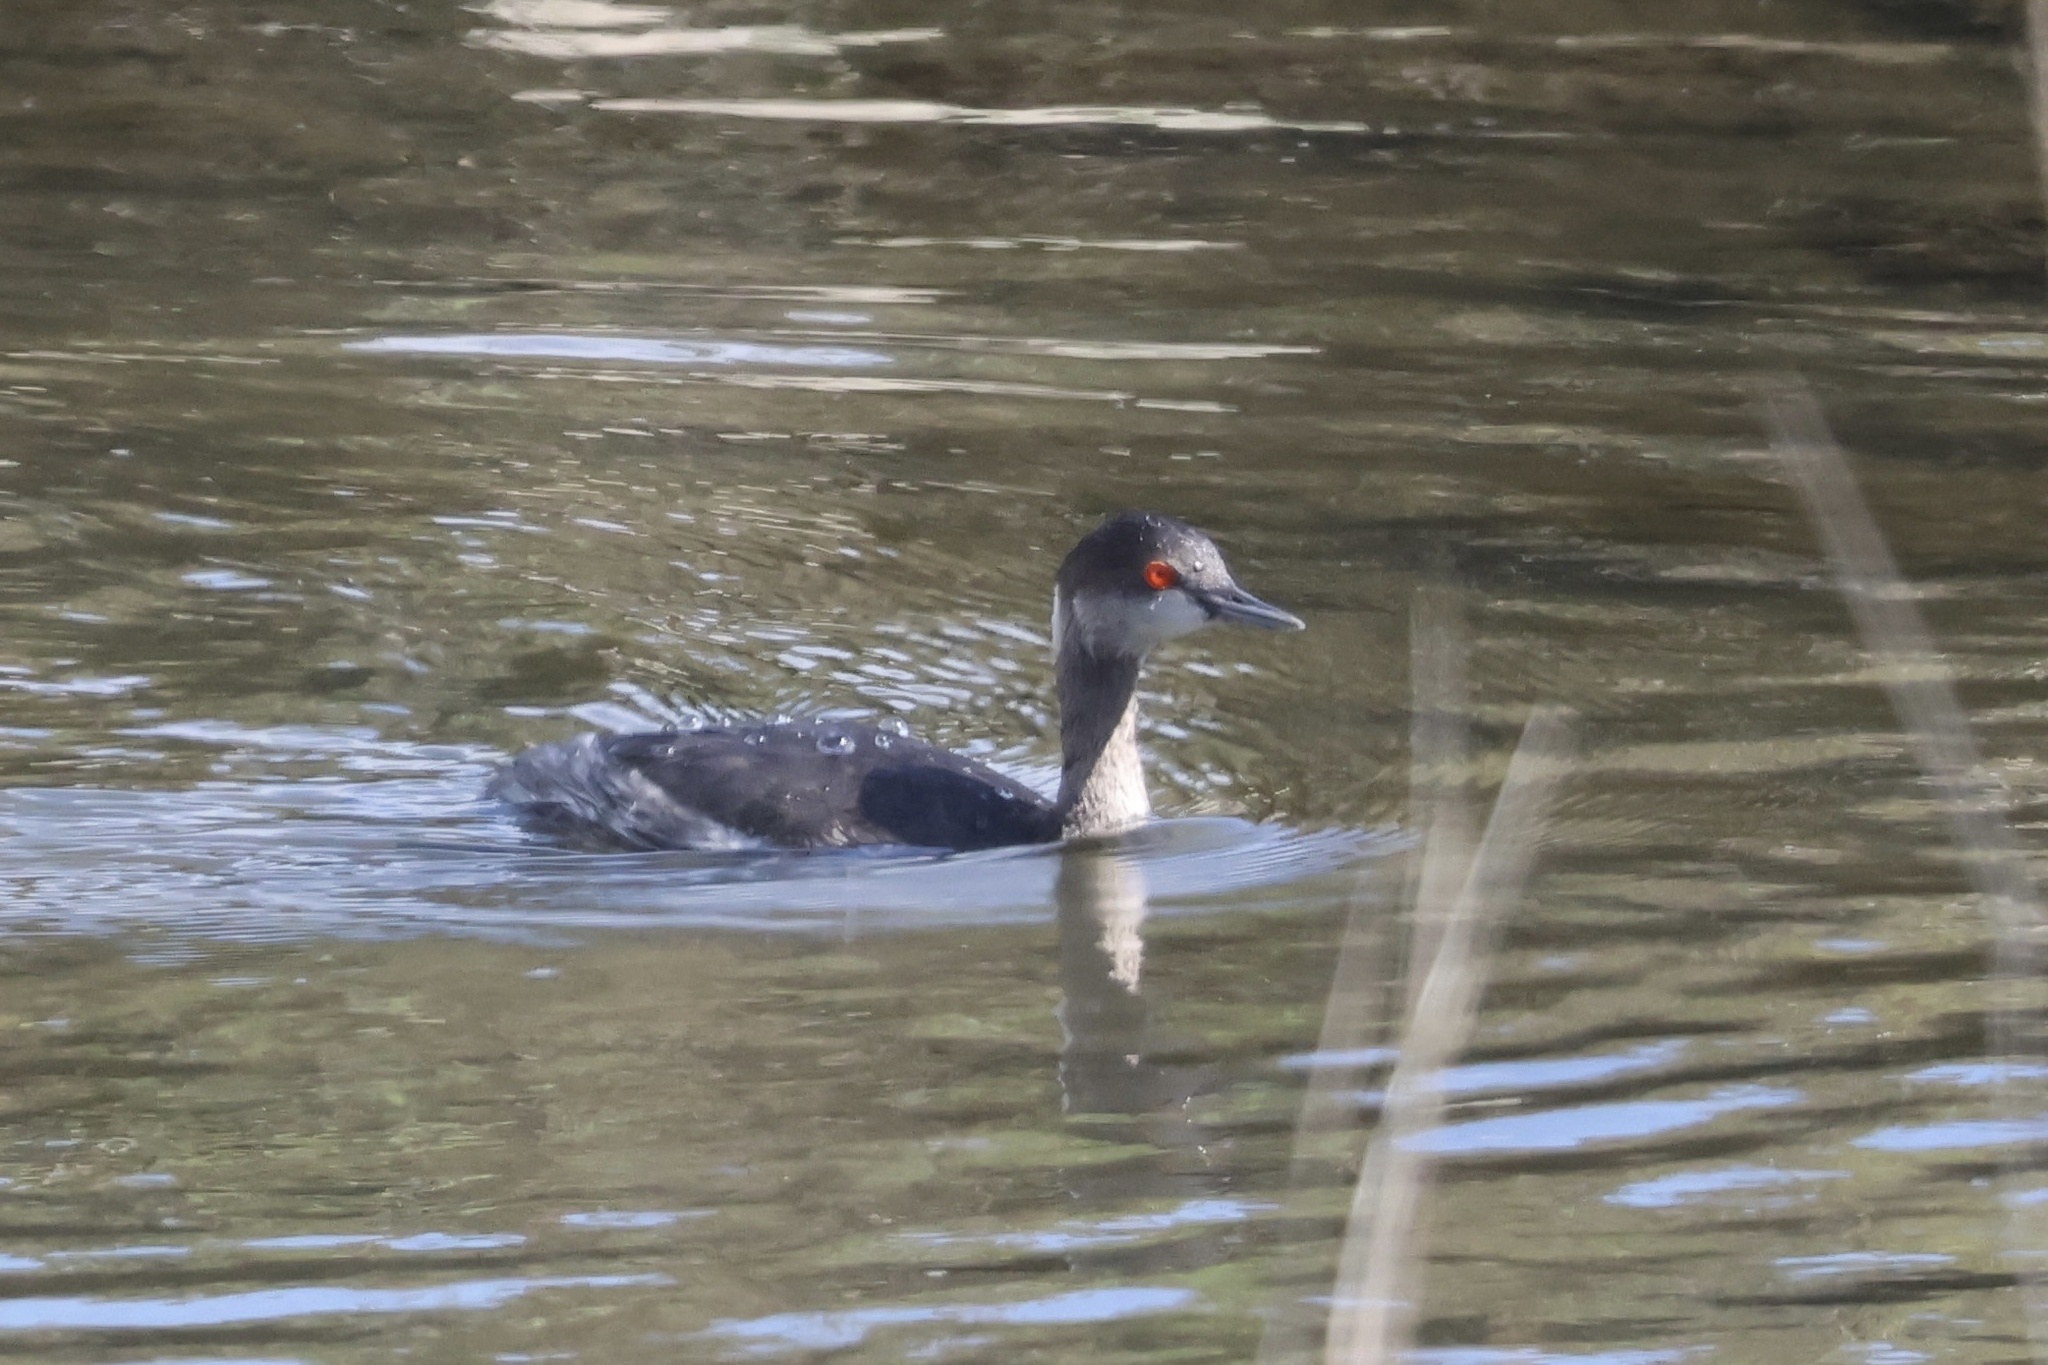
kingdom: Animalia
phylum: Chordata
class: Aves
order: Podicipediformes
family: Podicipedidae
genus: Podiceps
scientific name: Podiceps nigricollis
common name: Black-necked grebe
